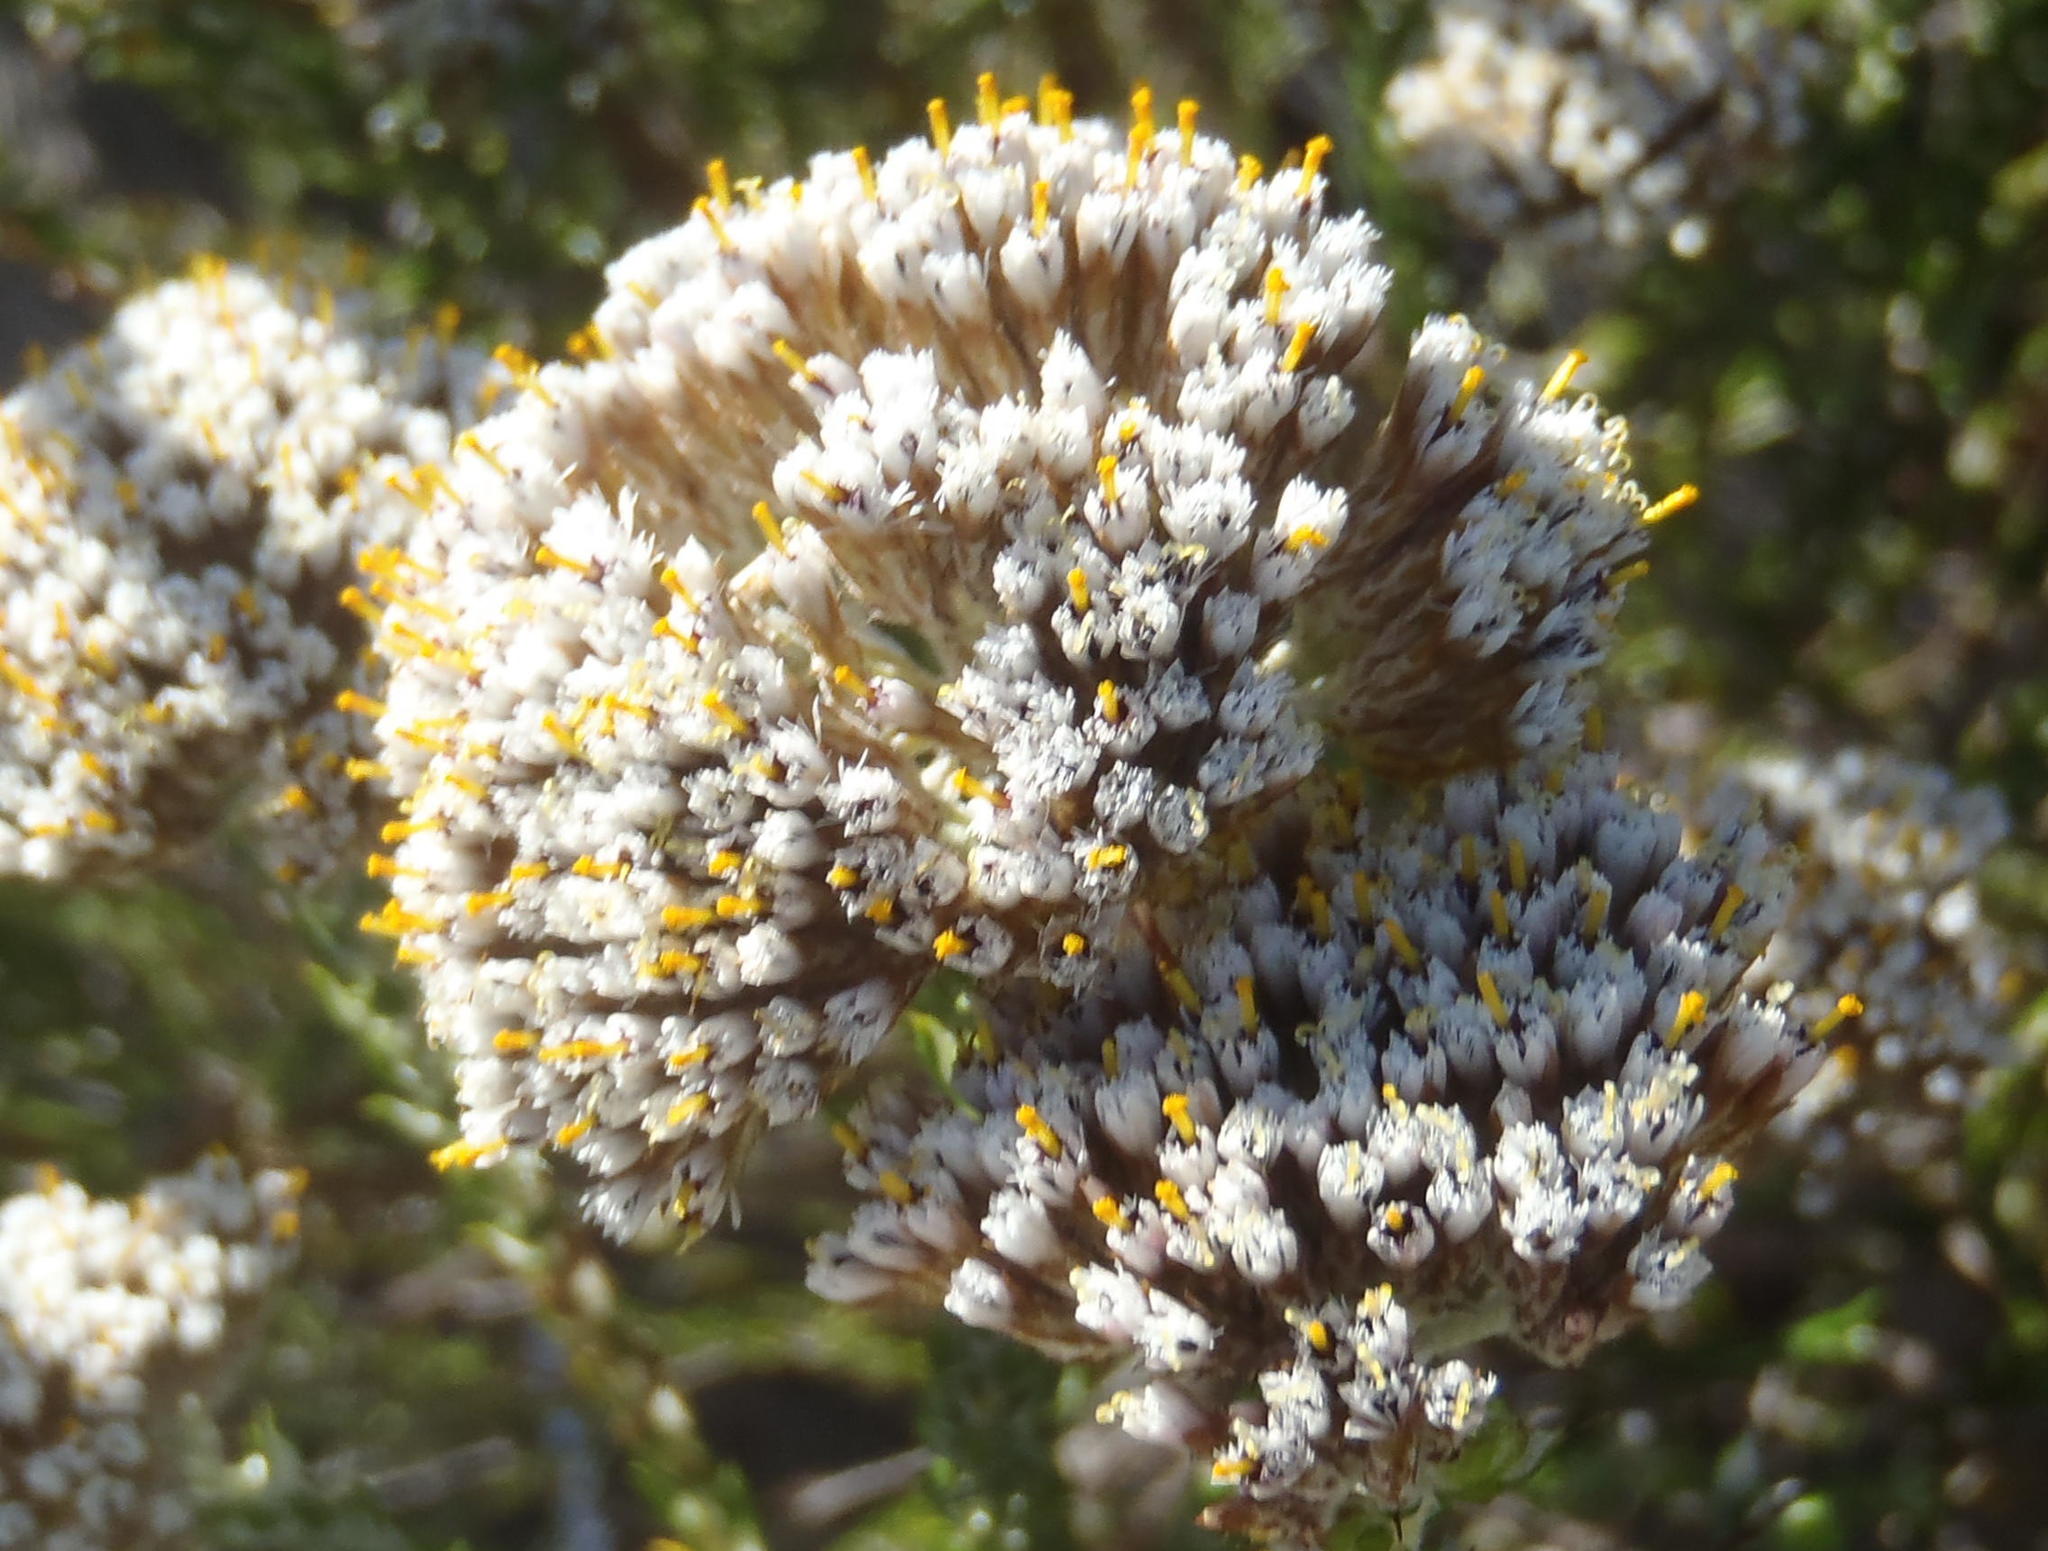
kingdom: Plantae
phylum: Tracheophyta
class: Magnoliopsida
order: Asterales
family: Asteraceae
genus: Metalasia
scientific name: Metalasia pallida
